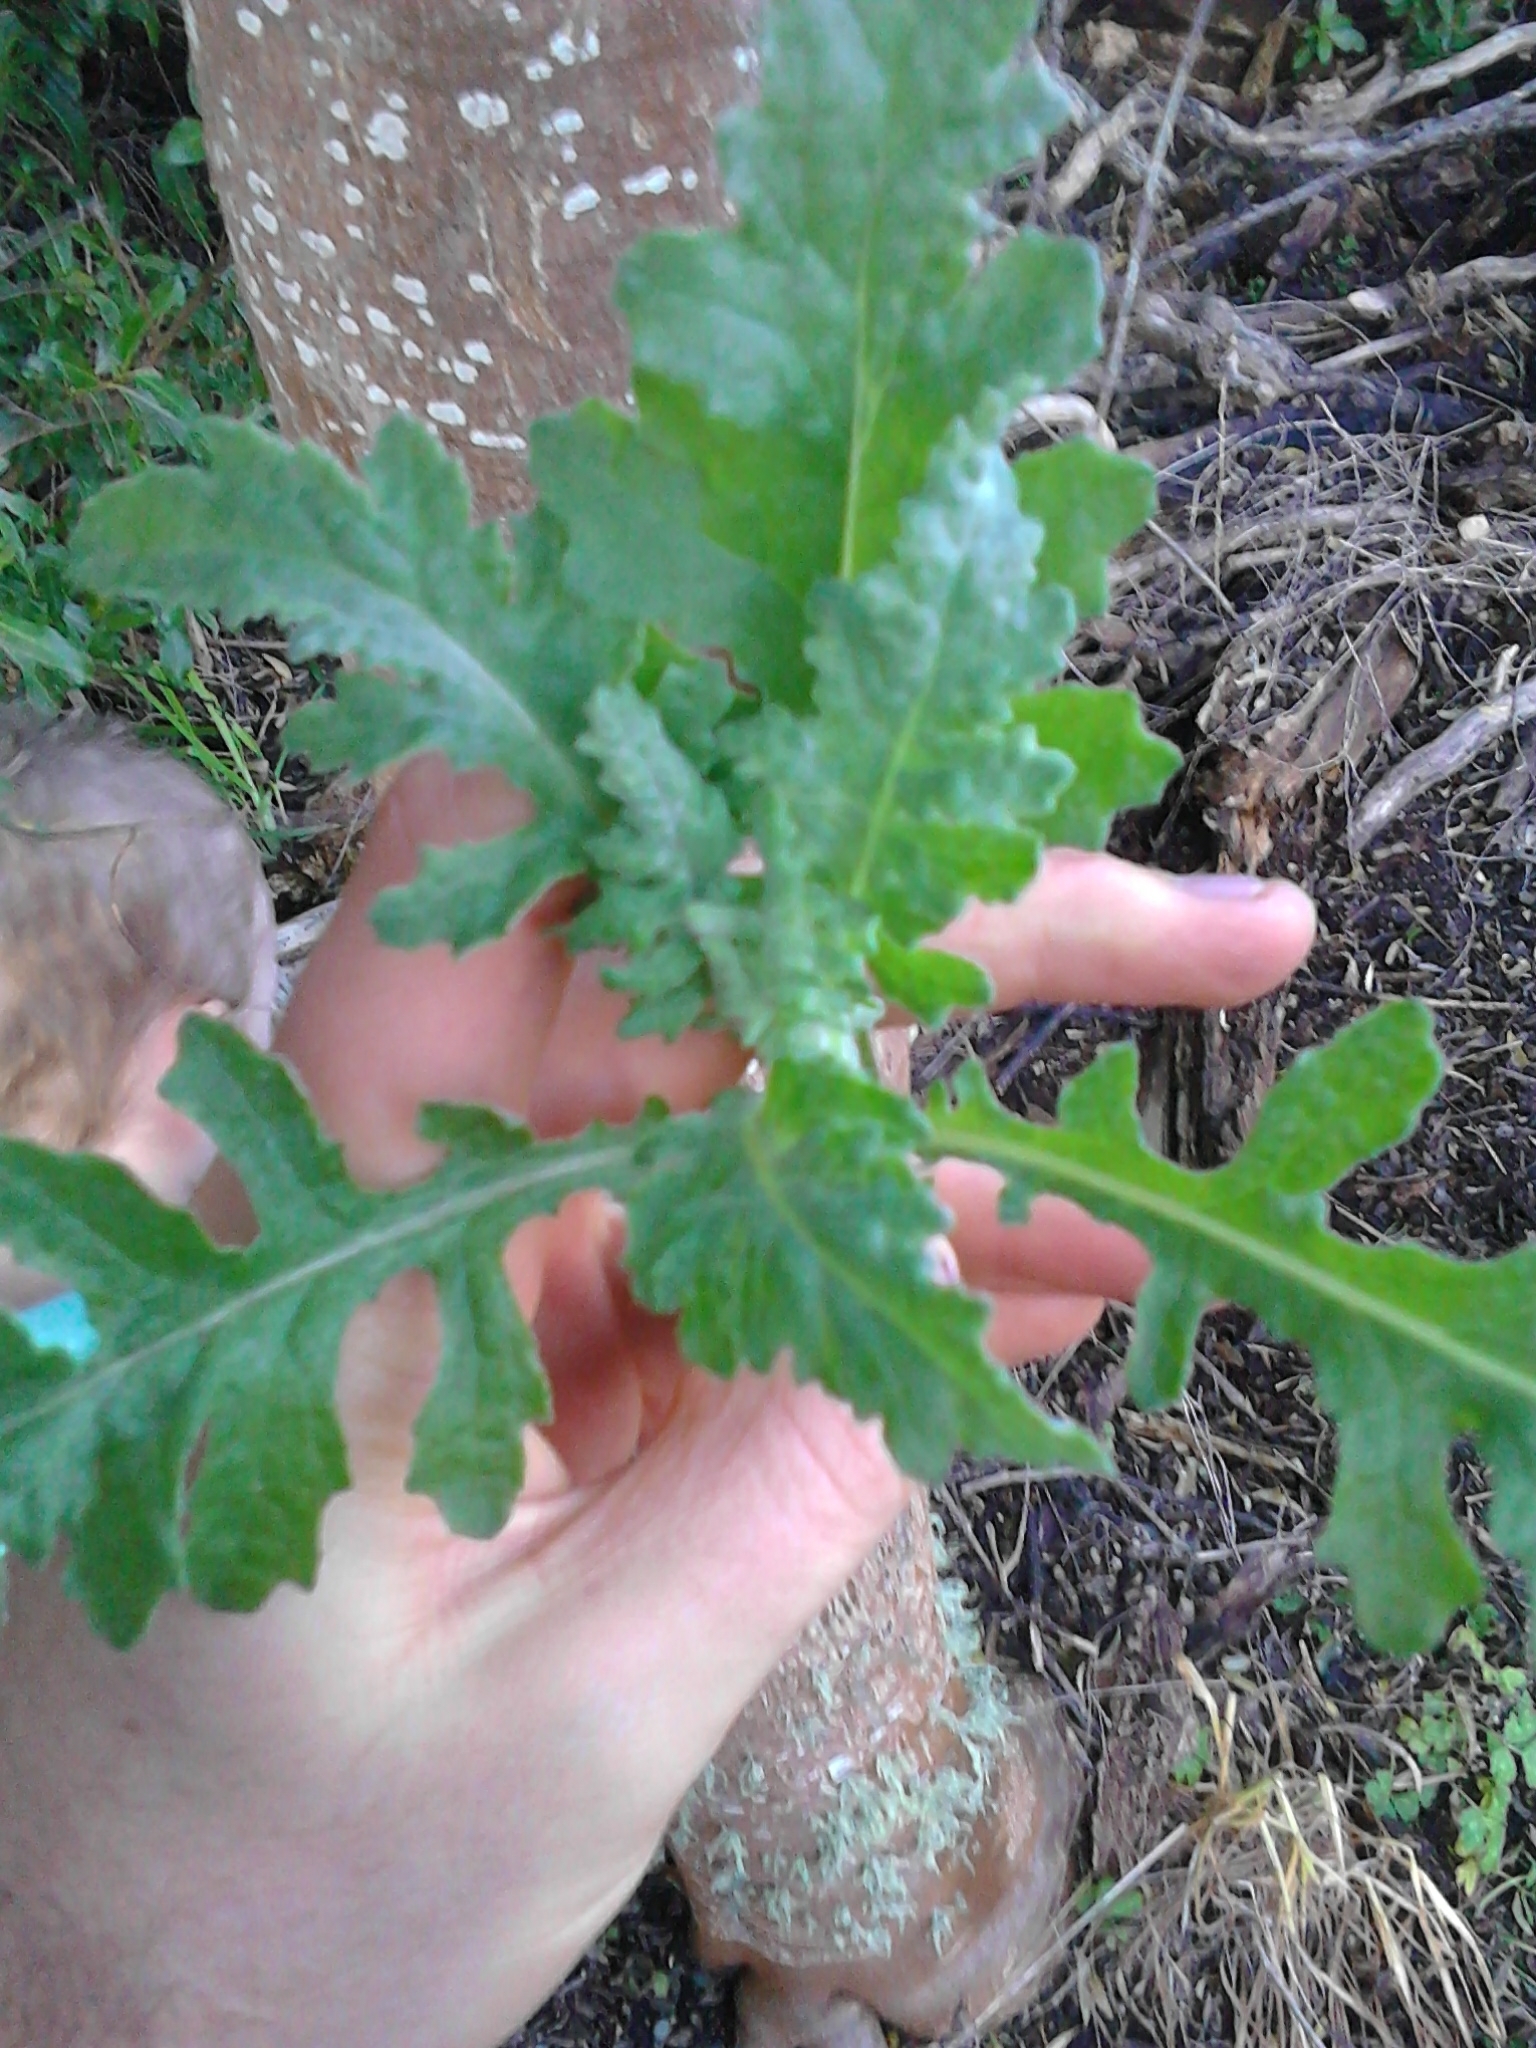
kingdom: Plantae
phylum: Tracheophyta
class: Magnoliopsida
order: Asterales
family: Asteraceae
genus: Senecio
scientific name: Senecio glomeratus
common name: Cutleaf burnweed
